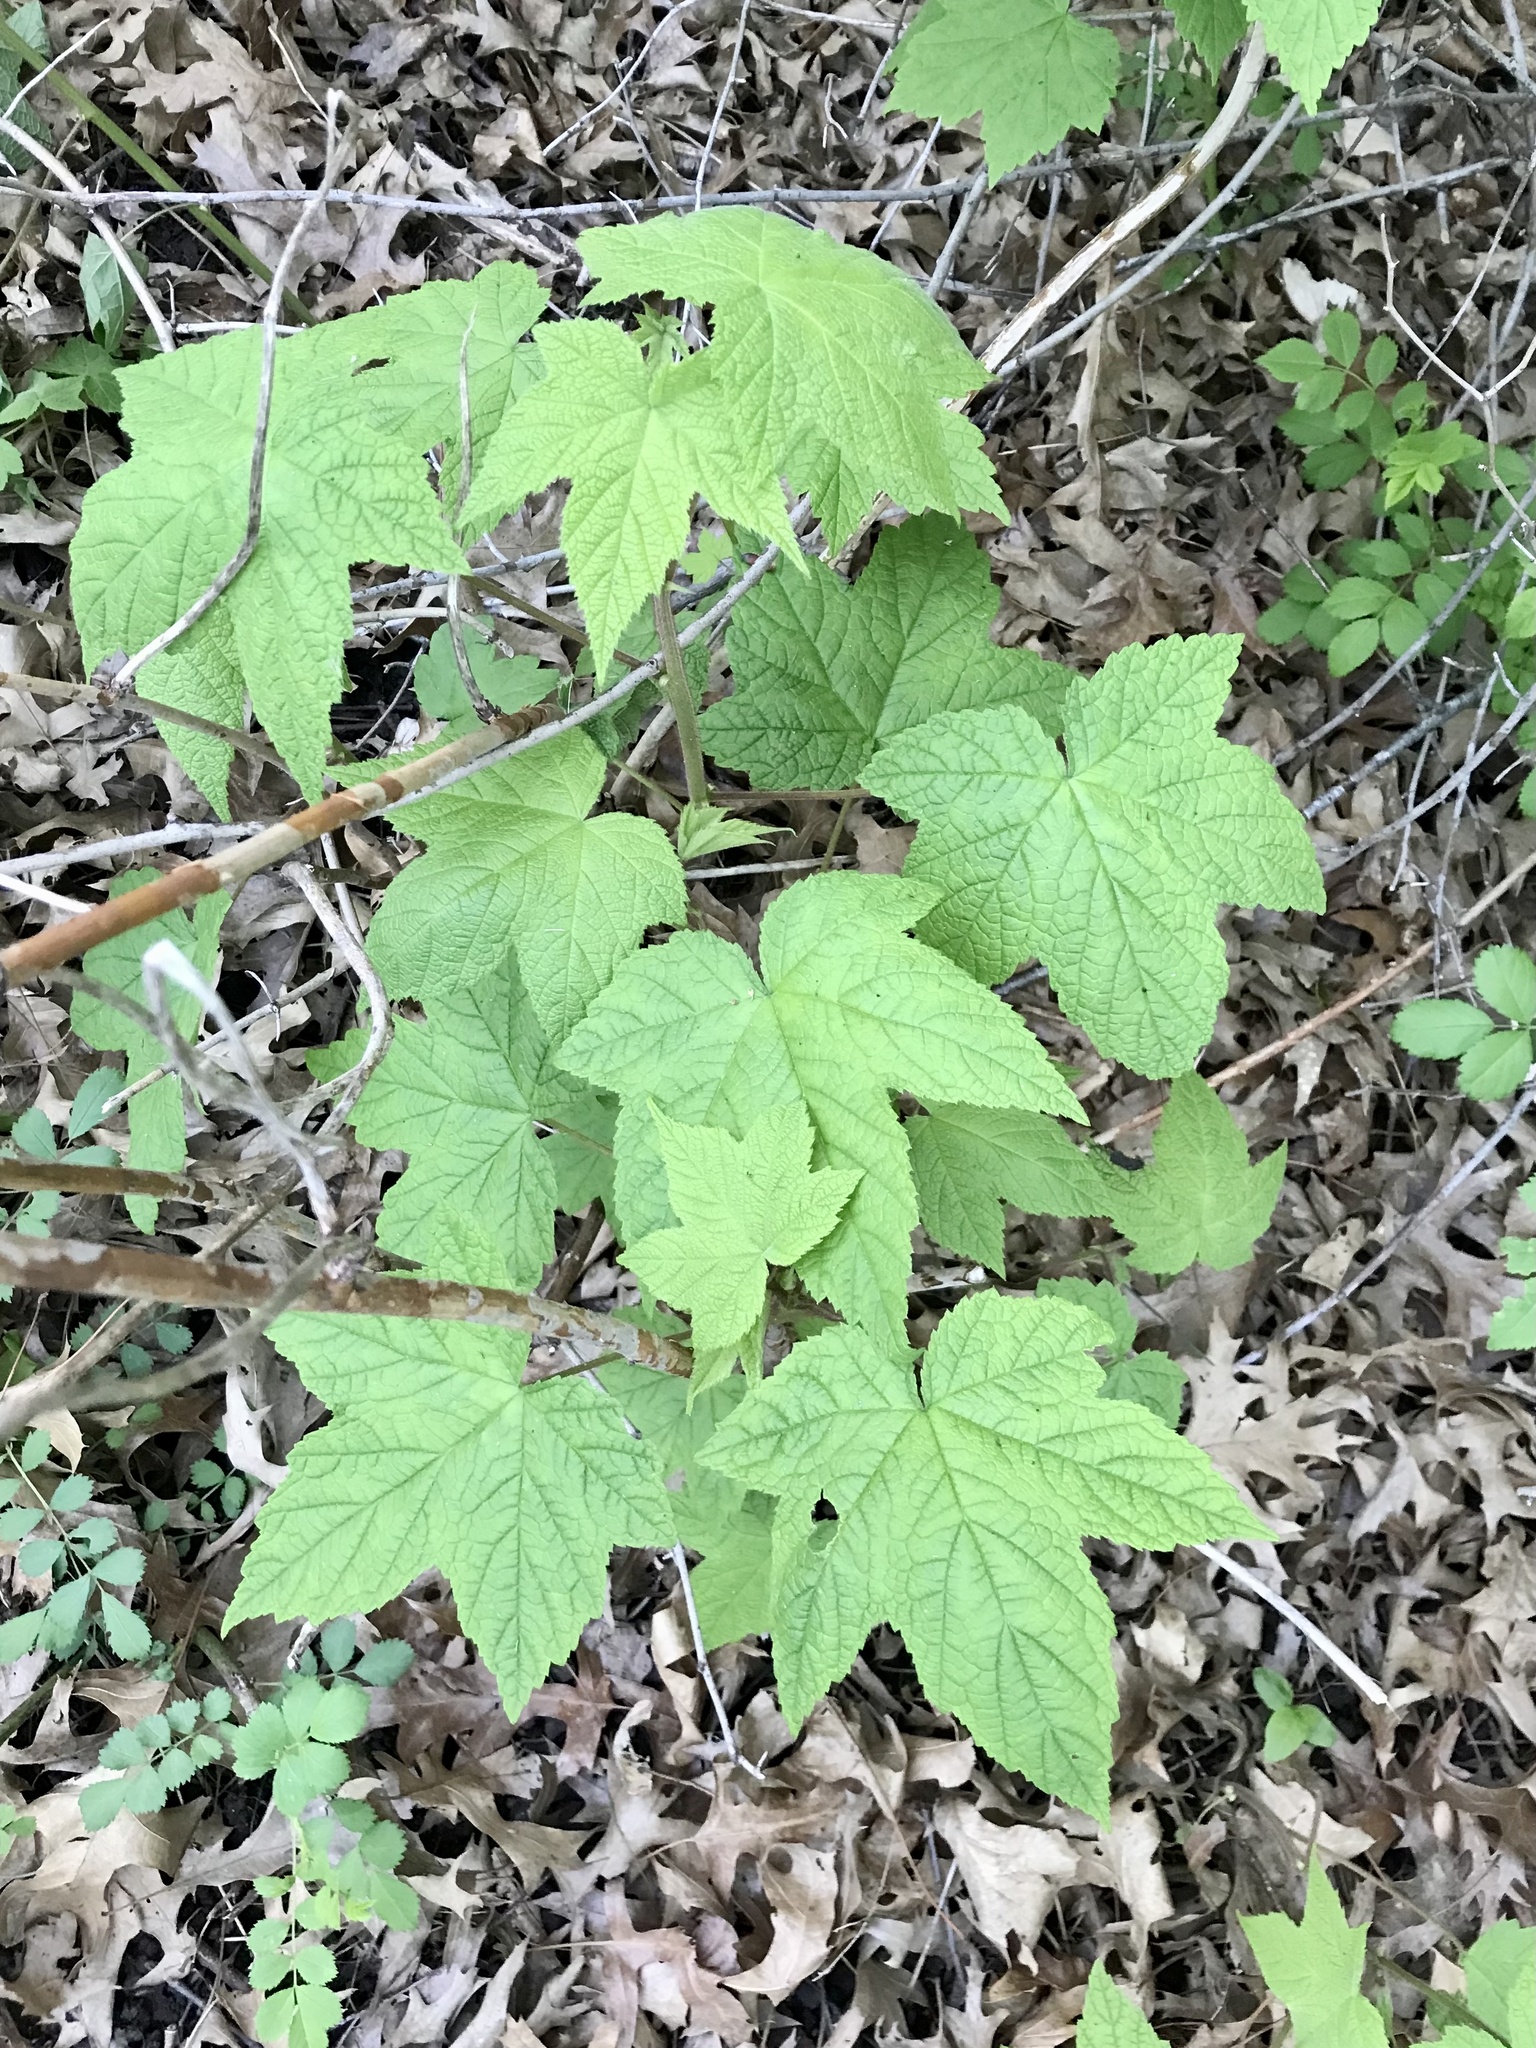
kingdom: Plantae
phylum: Tracheophyta
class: Magnoliopsida
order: Rosales
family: Rosaceae
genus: Rubus
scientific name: Rubus odoratus
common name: Purple-flowered raspberry
